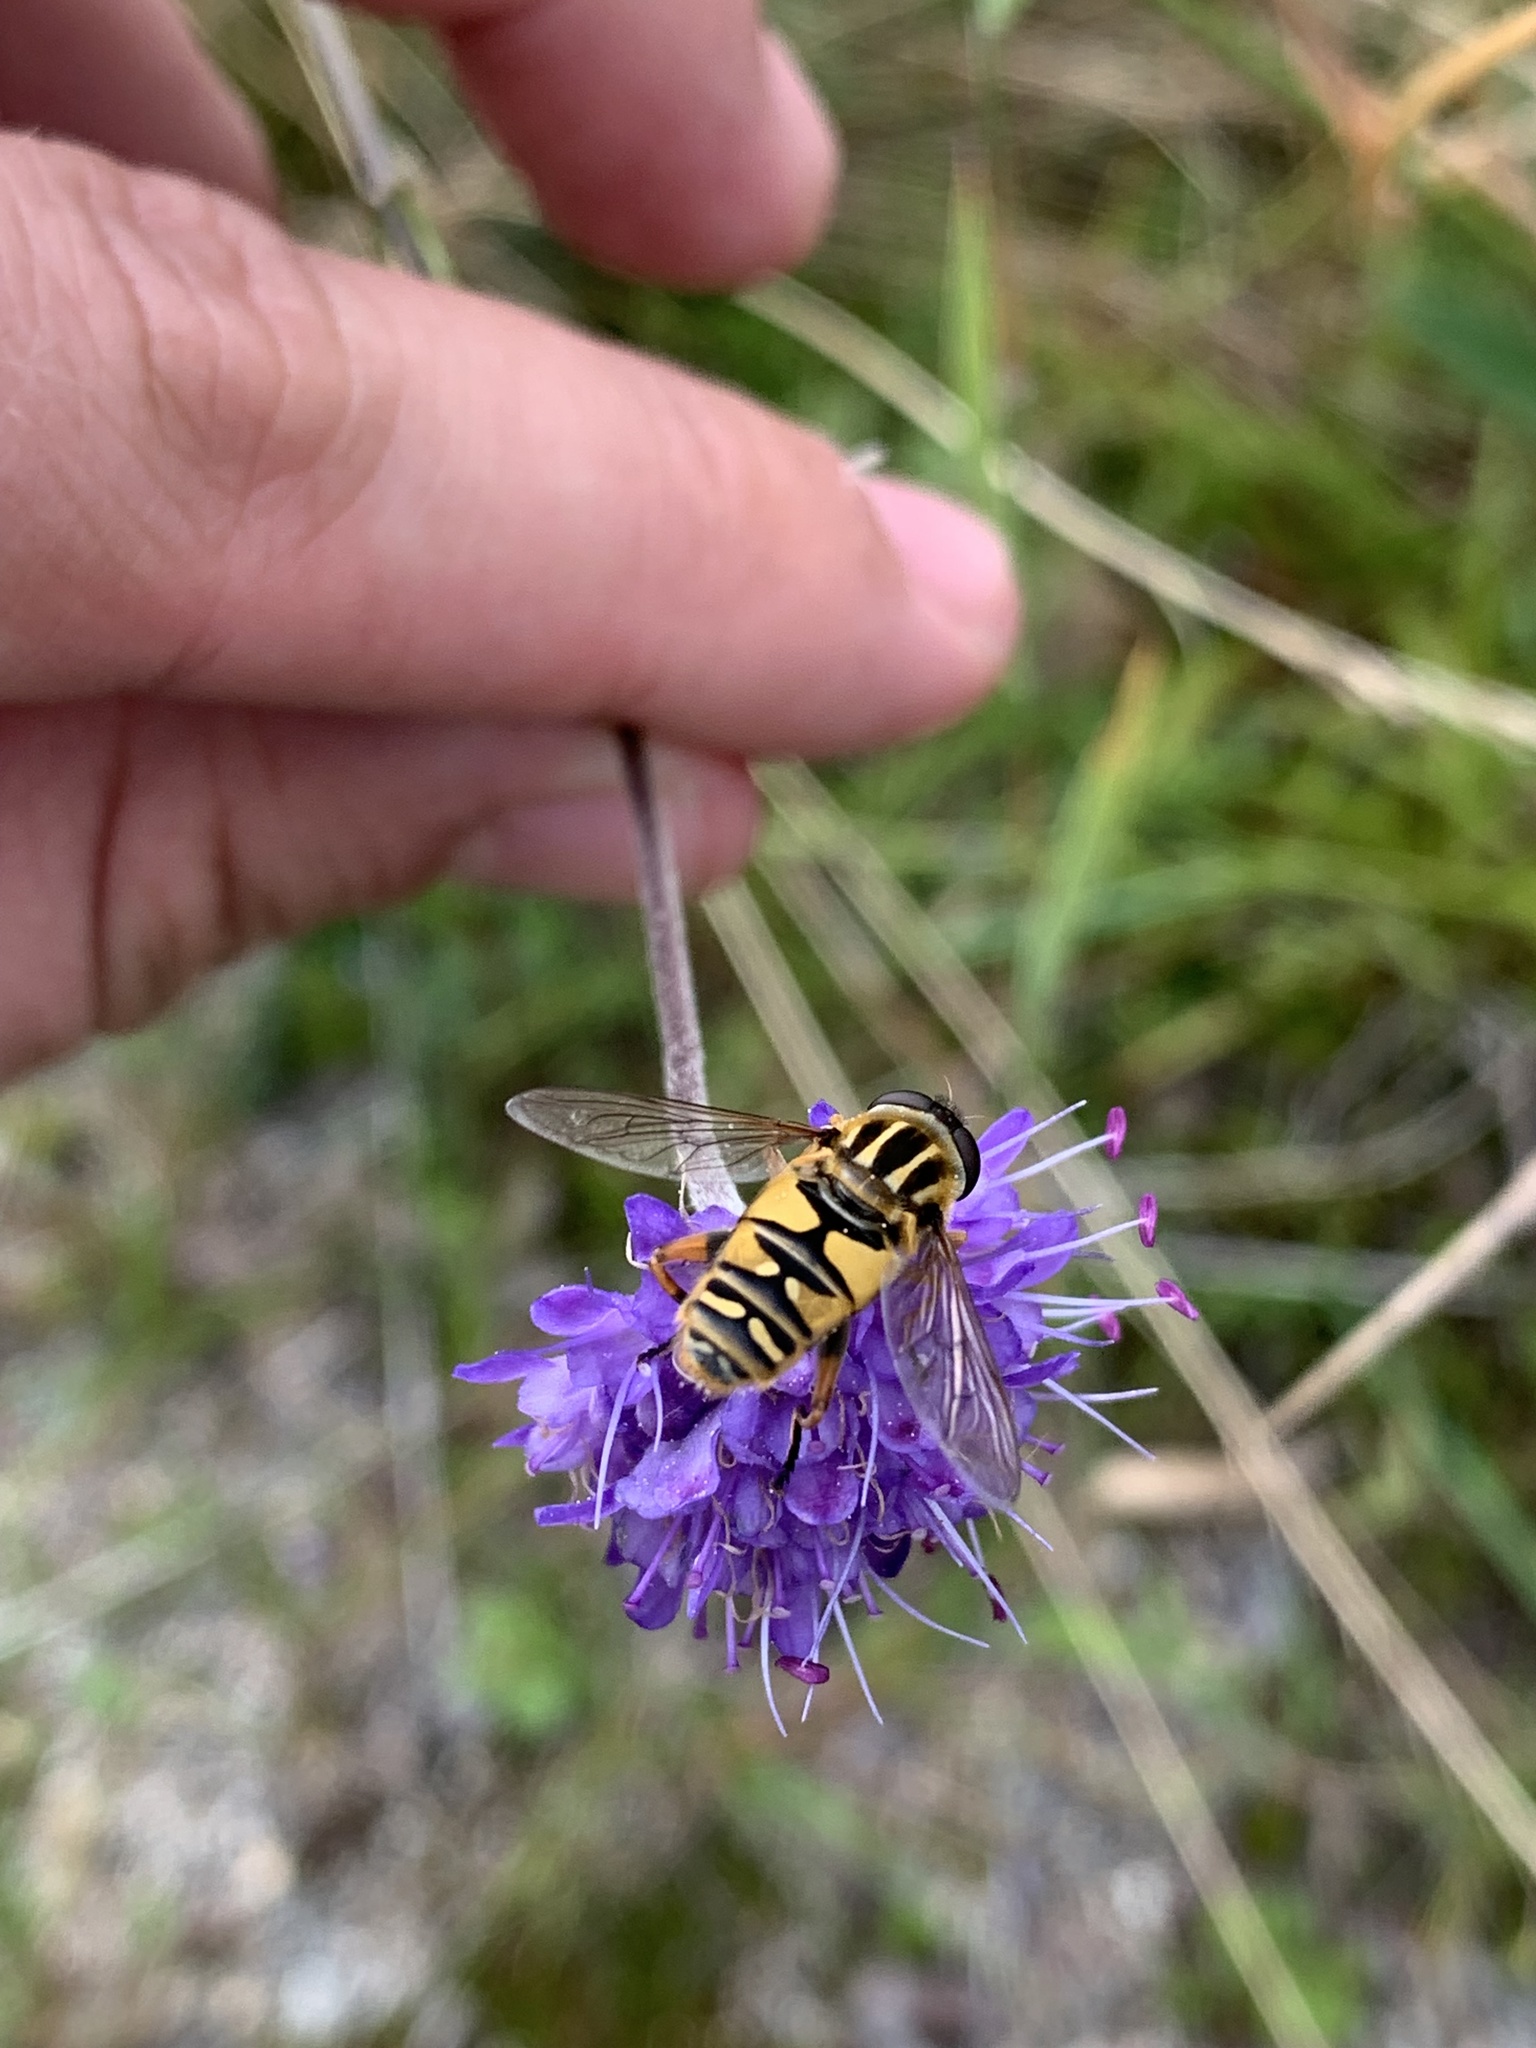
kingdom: Animalia
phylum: Arthropoda
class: Insecta
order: Diptera
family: Syrphidae
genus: Helophilus
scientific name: Helophilus pendulus
